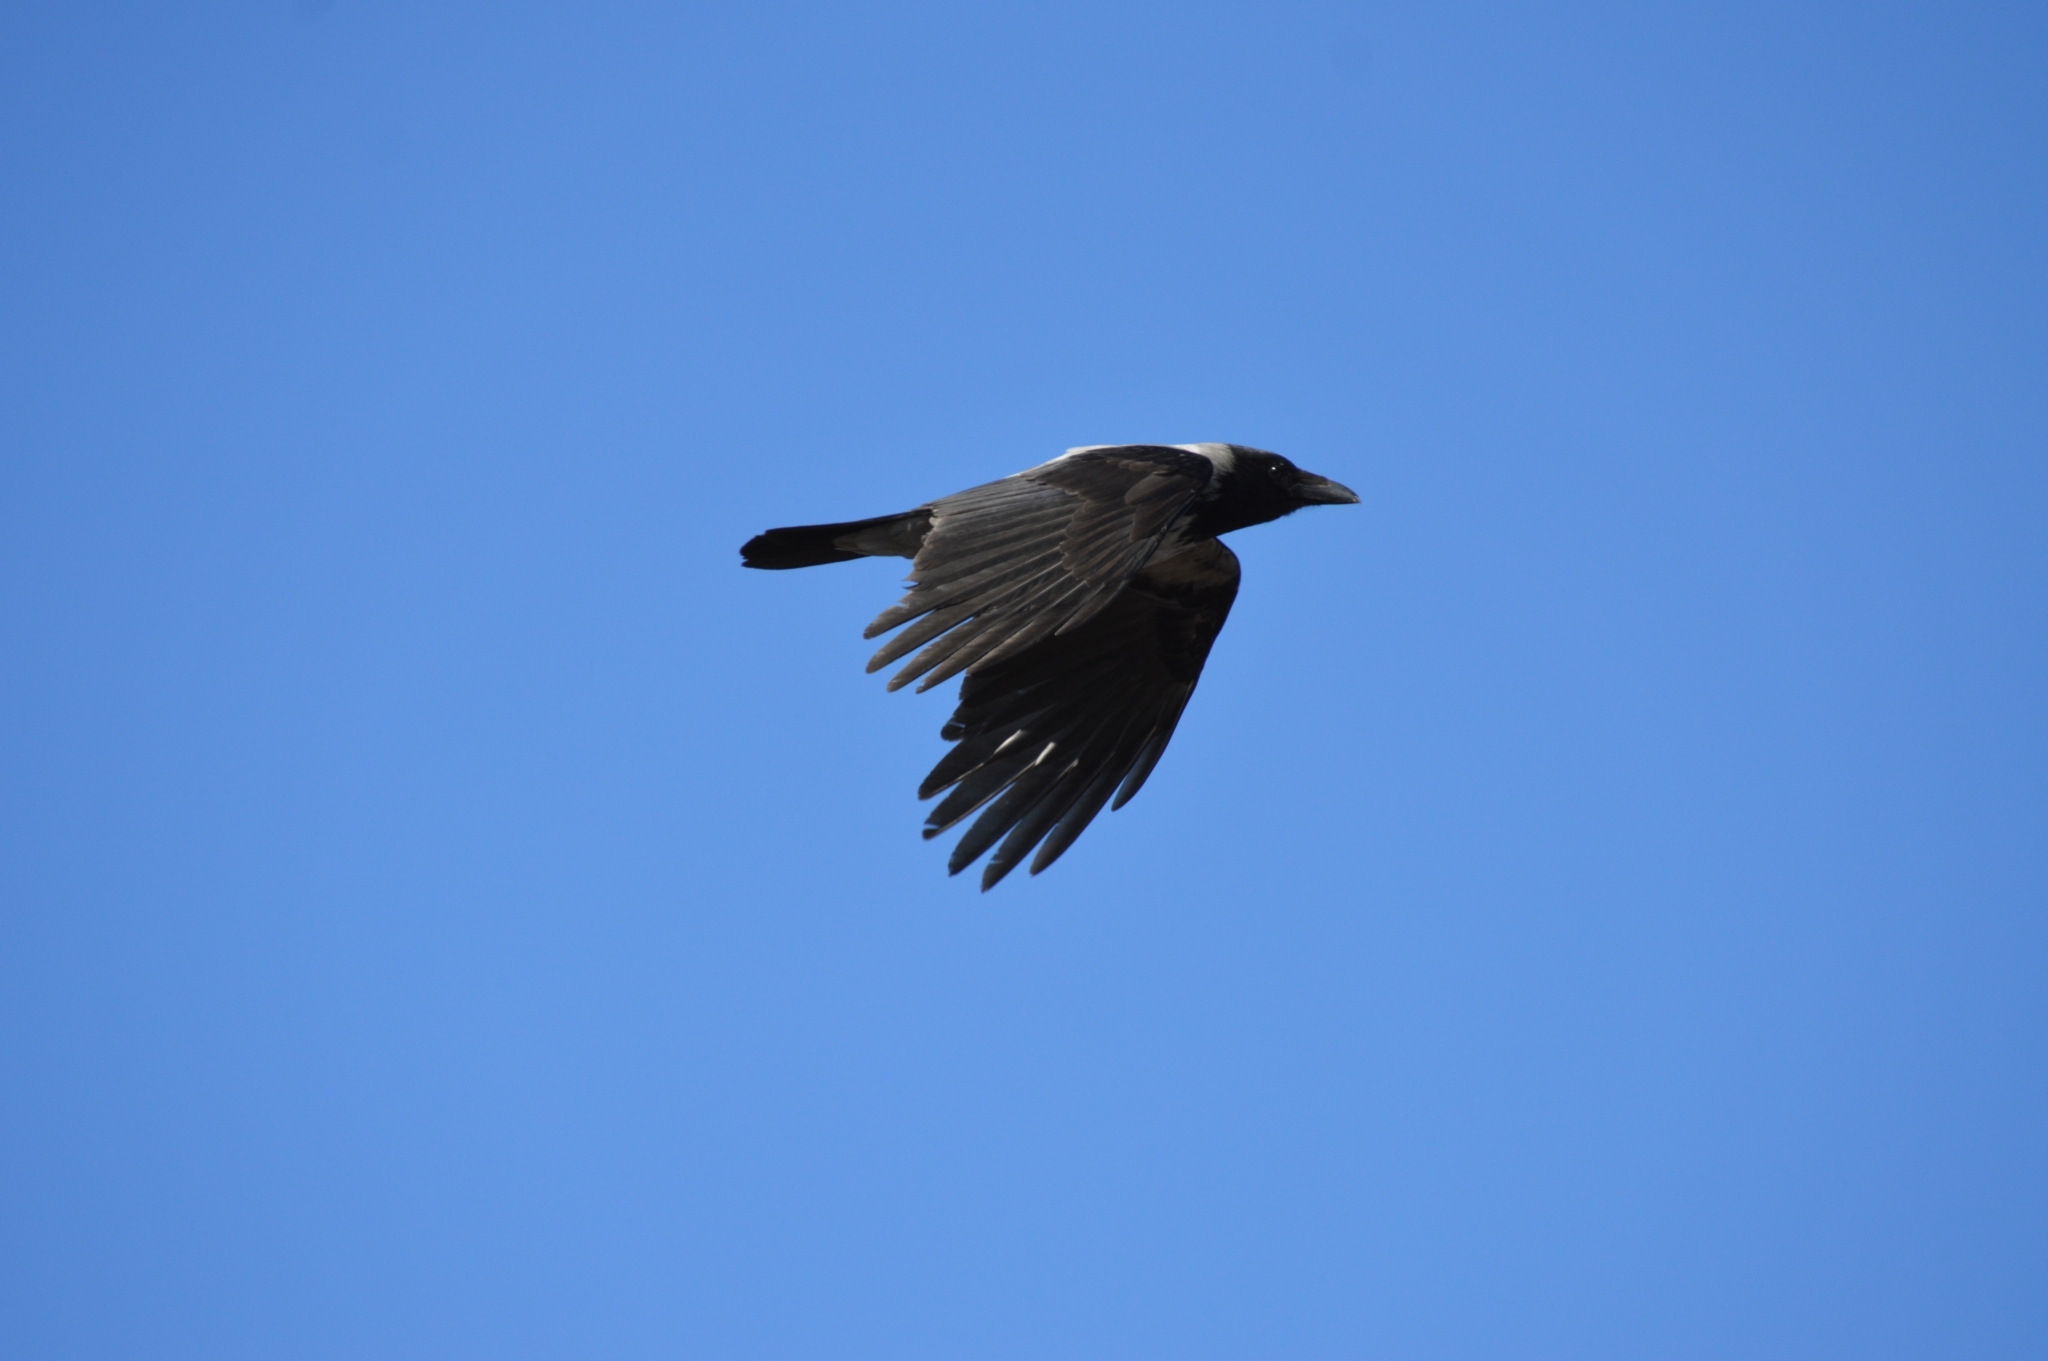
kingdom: Animalia
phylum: Chordata
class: Aves
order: Passeriformes
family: Corvidae
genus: Corvus
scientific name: Corvus cornix
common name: Hooded crow
